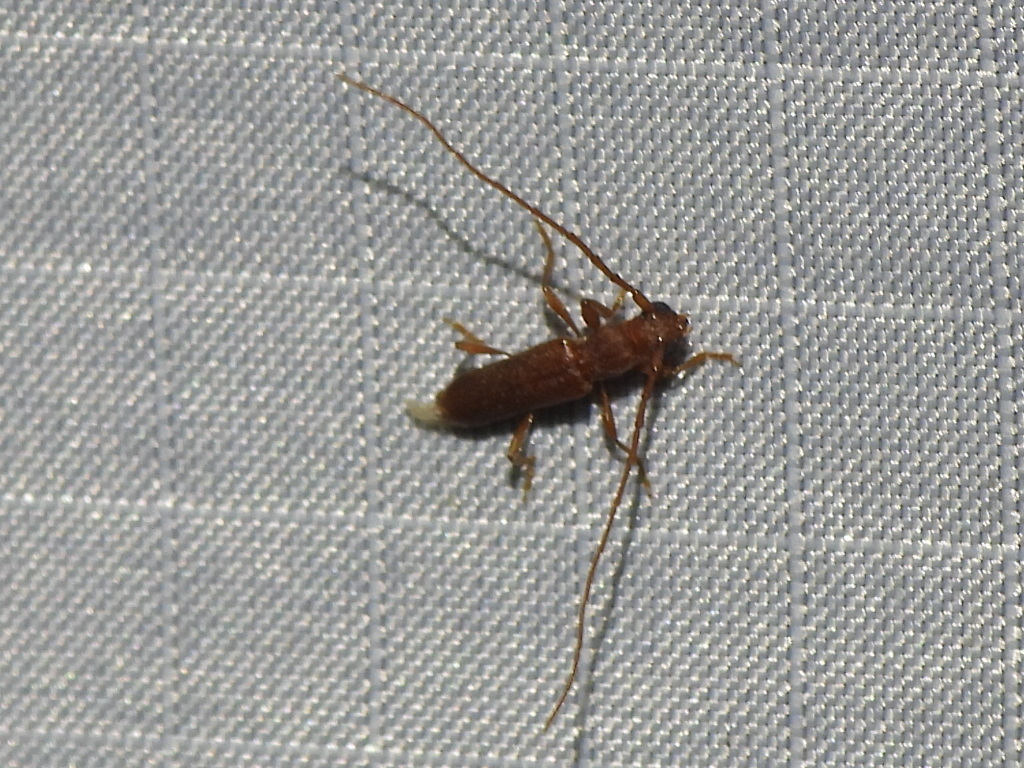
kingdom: Animalia
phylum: Arthropoda
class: Insecta
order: Coleoptera
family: Cerambycidae
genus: Hypexilis
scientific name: Hypexilis pallida
